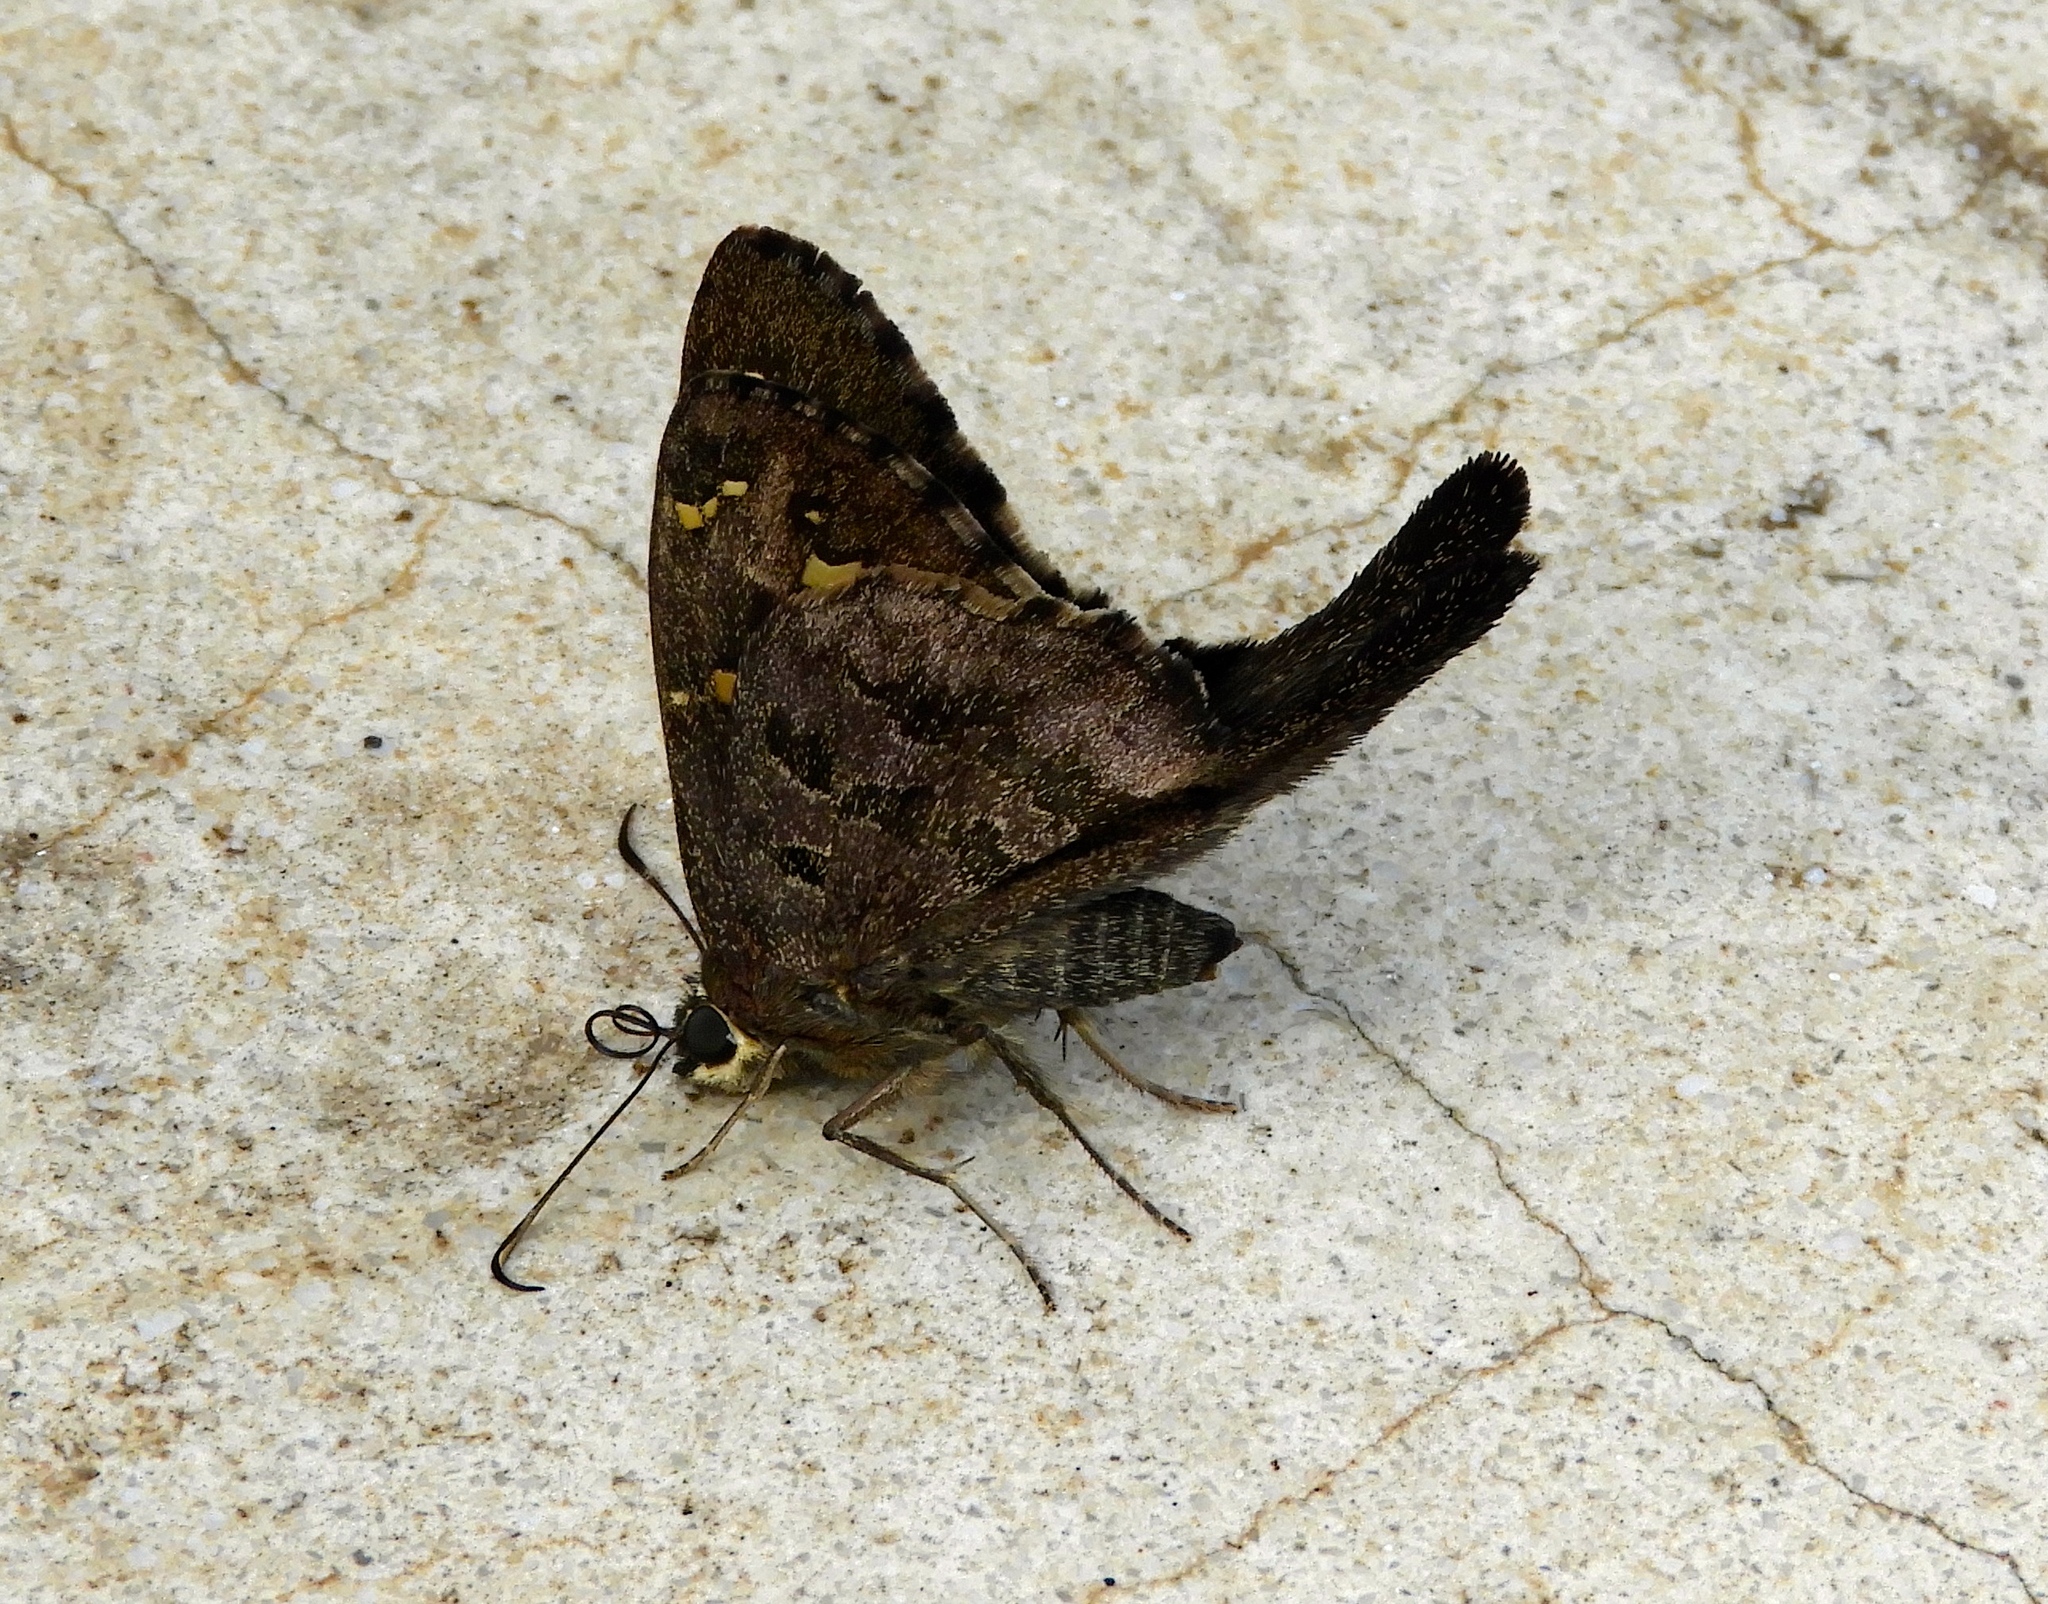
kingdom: Animalia
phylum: Arthropoda
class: Insecta
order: Lepidoptera
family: Hesperiidae
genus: Thorybes
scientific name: Thorybes
